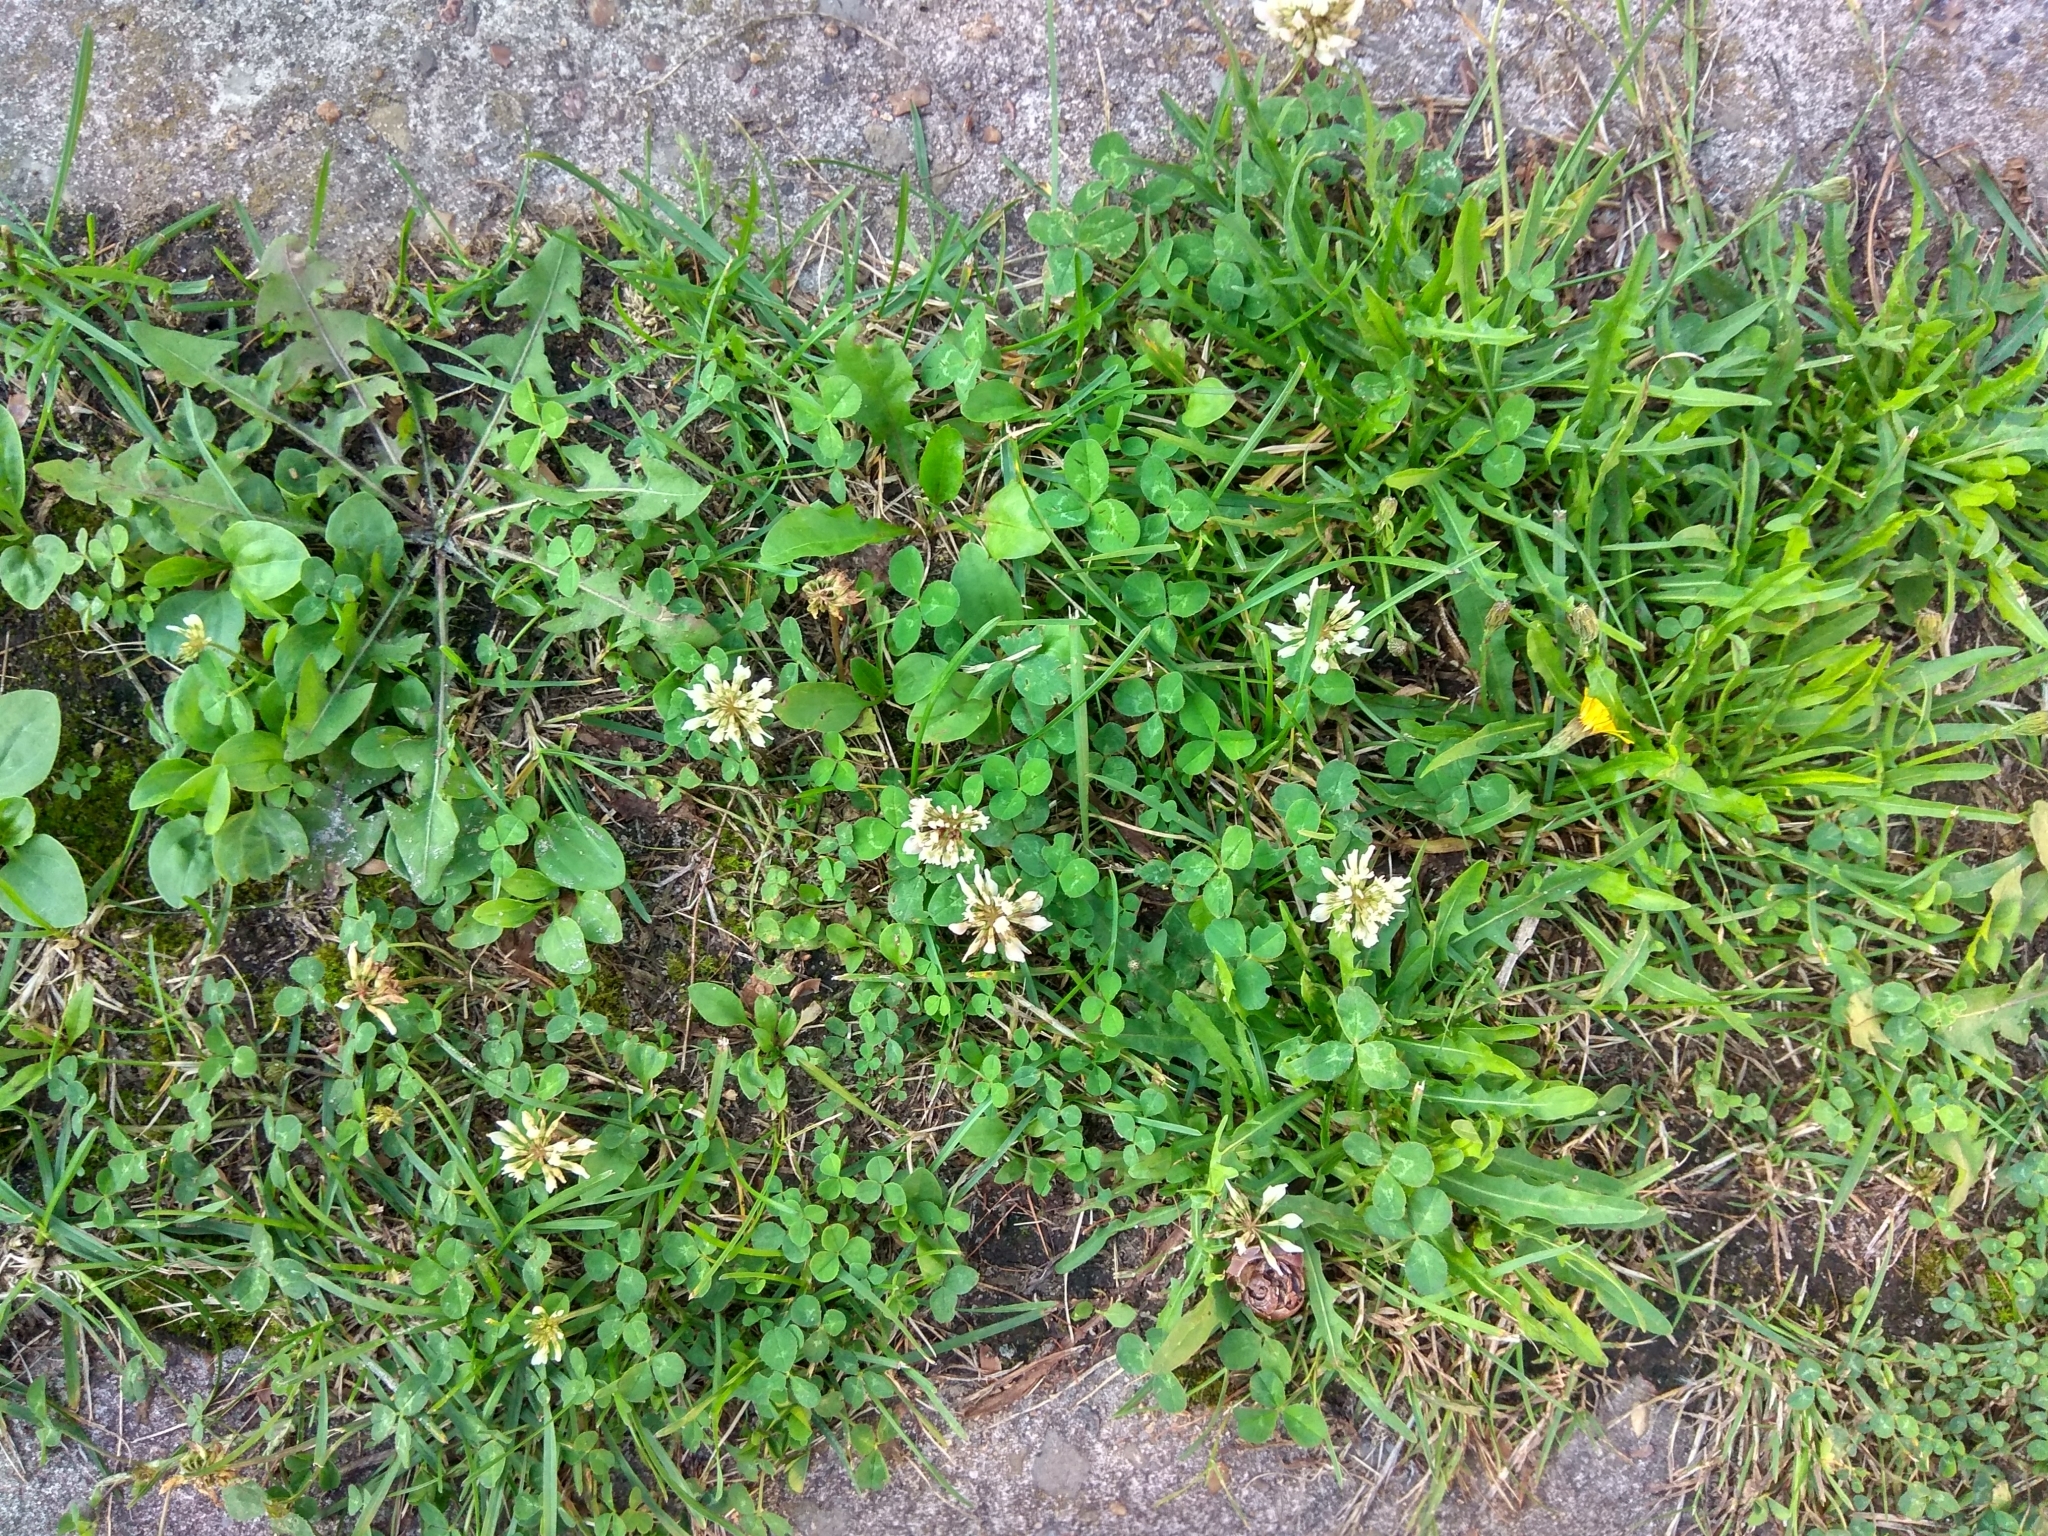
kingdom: Plantae
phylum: Tracheophyta
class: Magnoliopsida
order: Fabales
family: Fabaceae
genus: Trifolium
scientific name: Trifolium repens
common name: White clover
